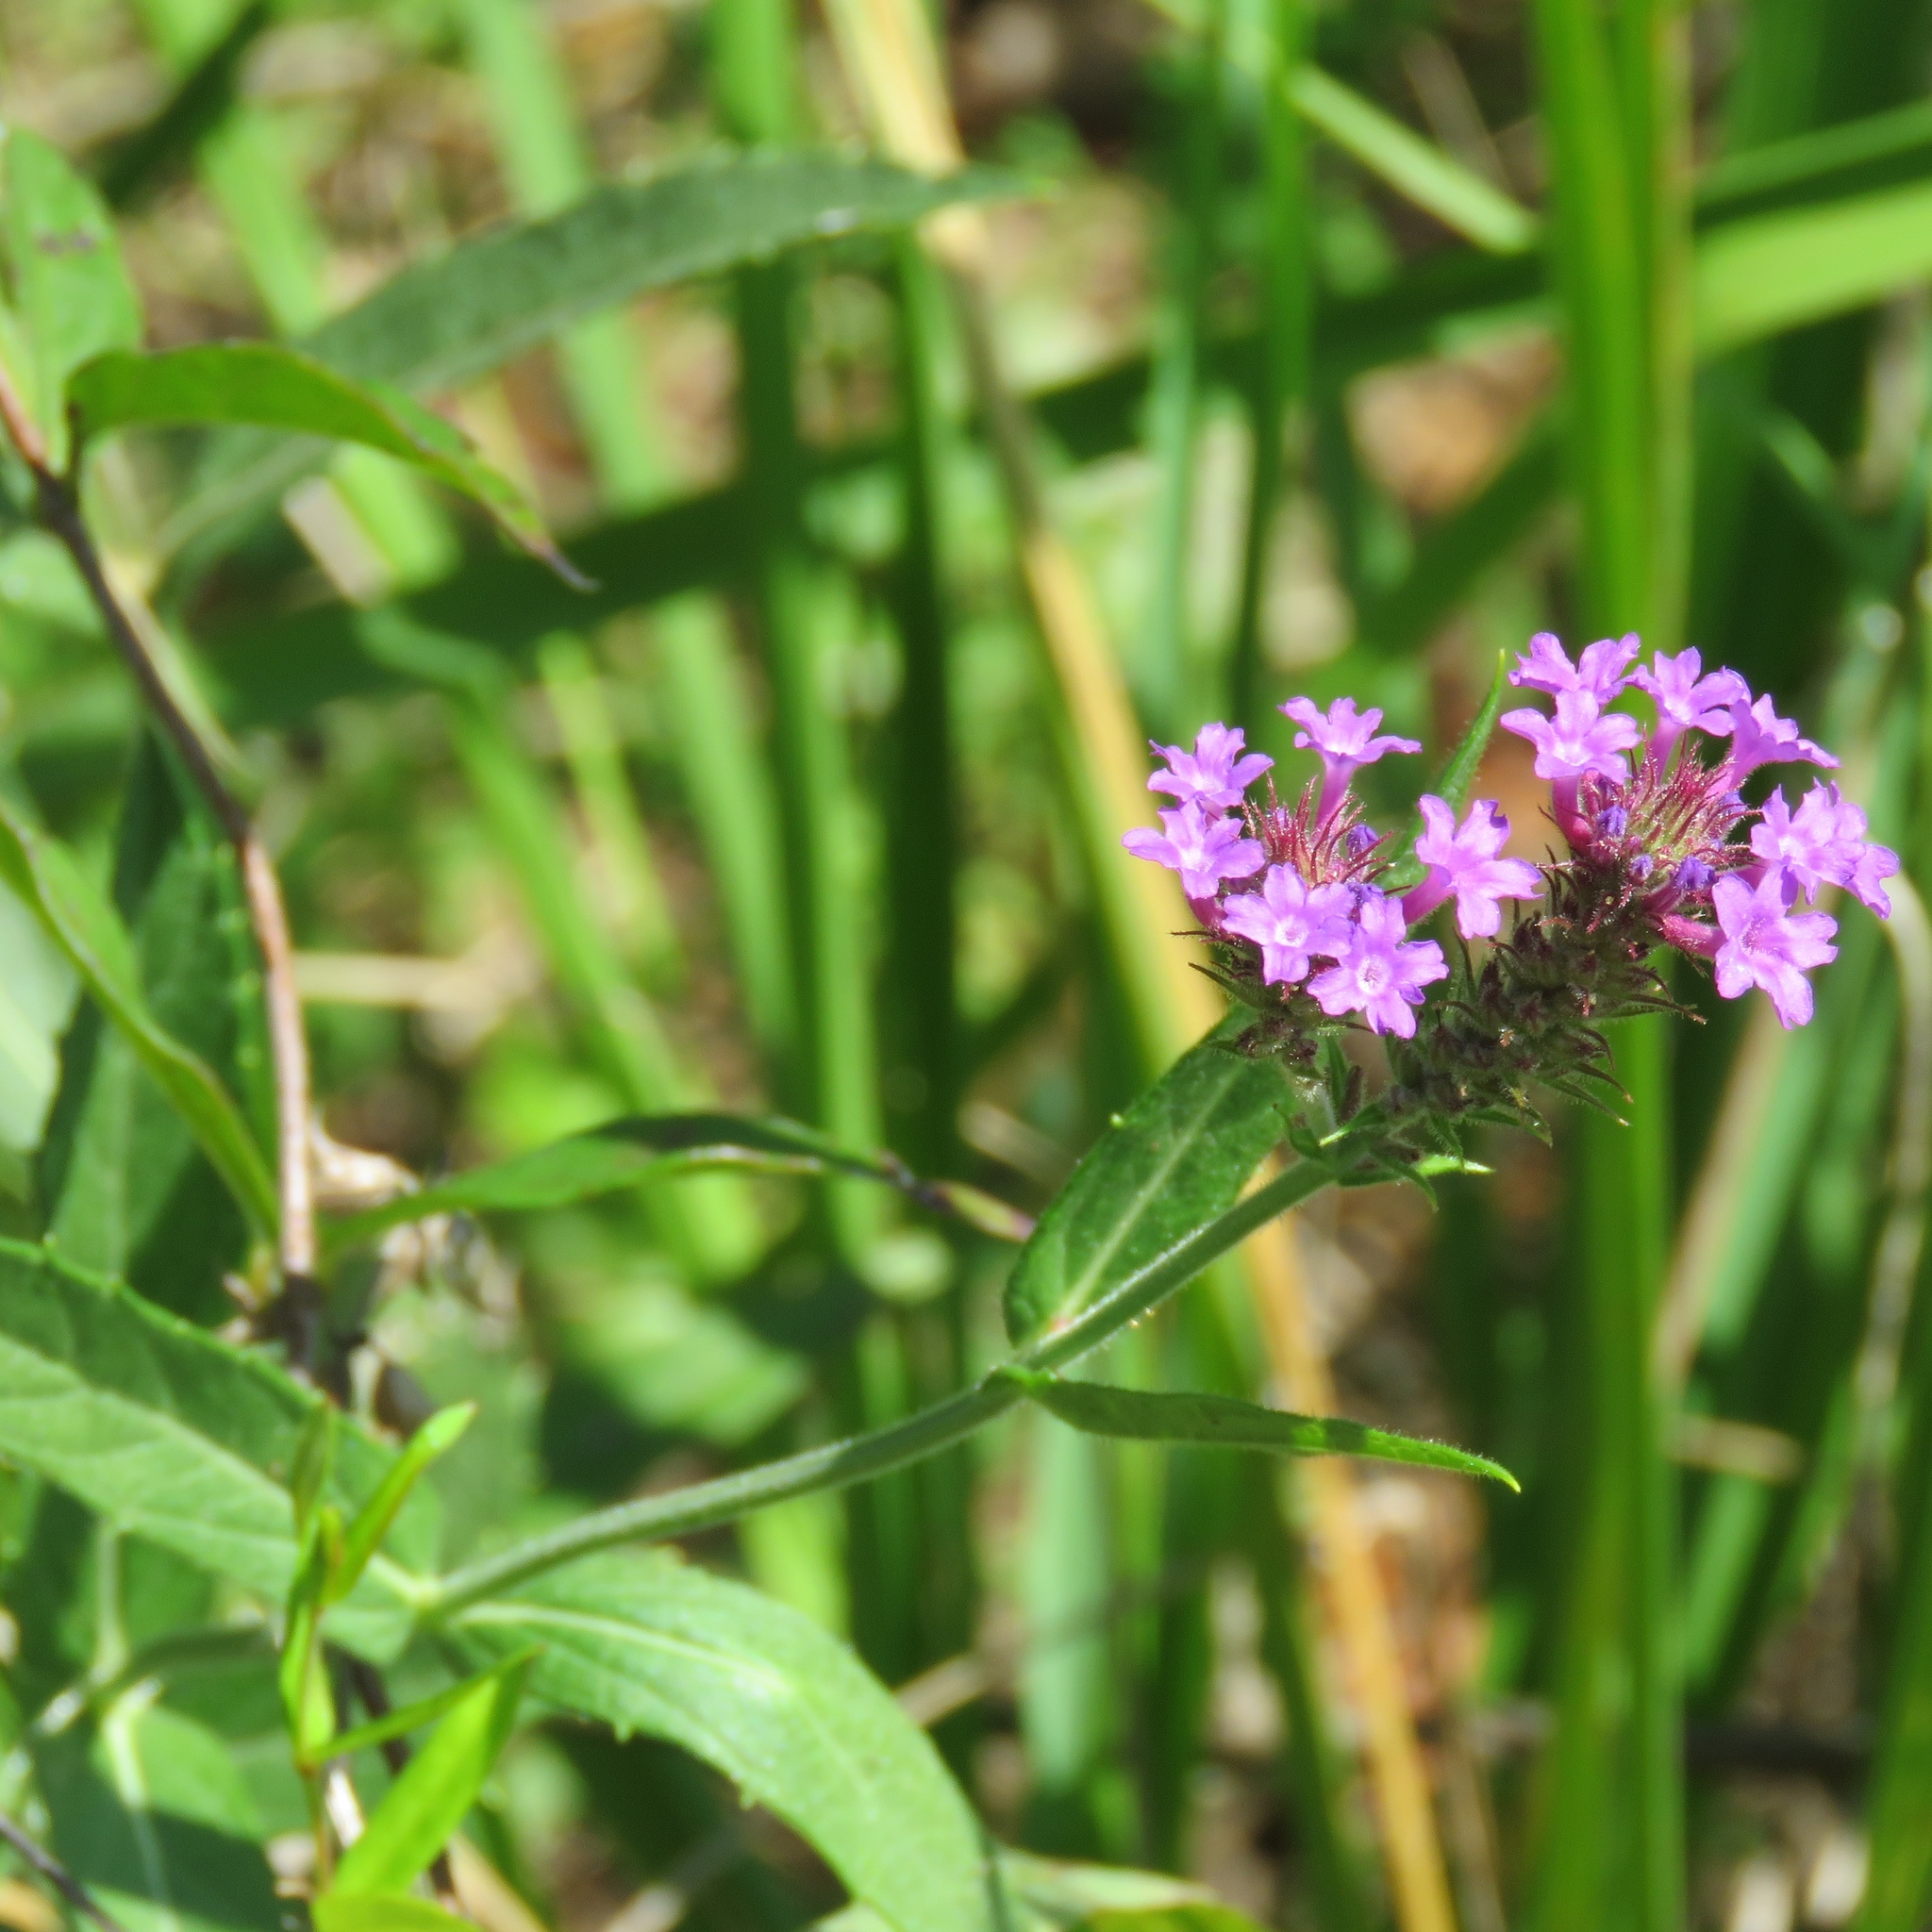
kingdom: Plantae
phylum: Tracheophyta
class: Magnoliopsida
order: Lamiales
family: Verbenaceae
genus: Verbena
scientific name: Verbena rigida
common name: Slender vervain
